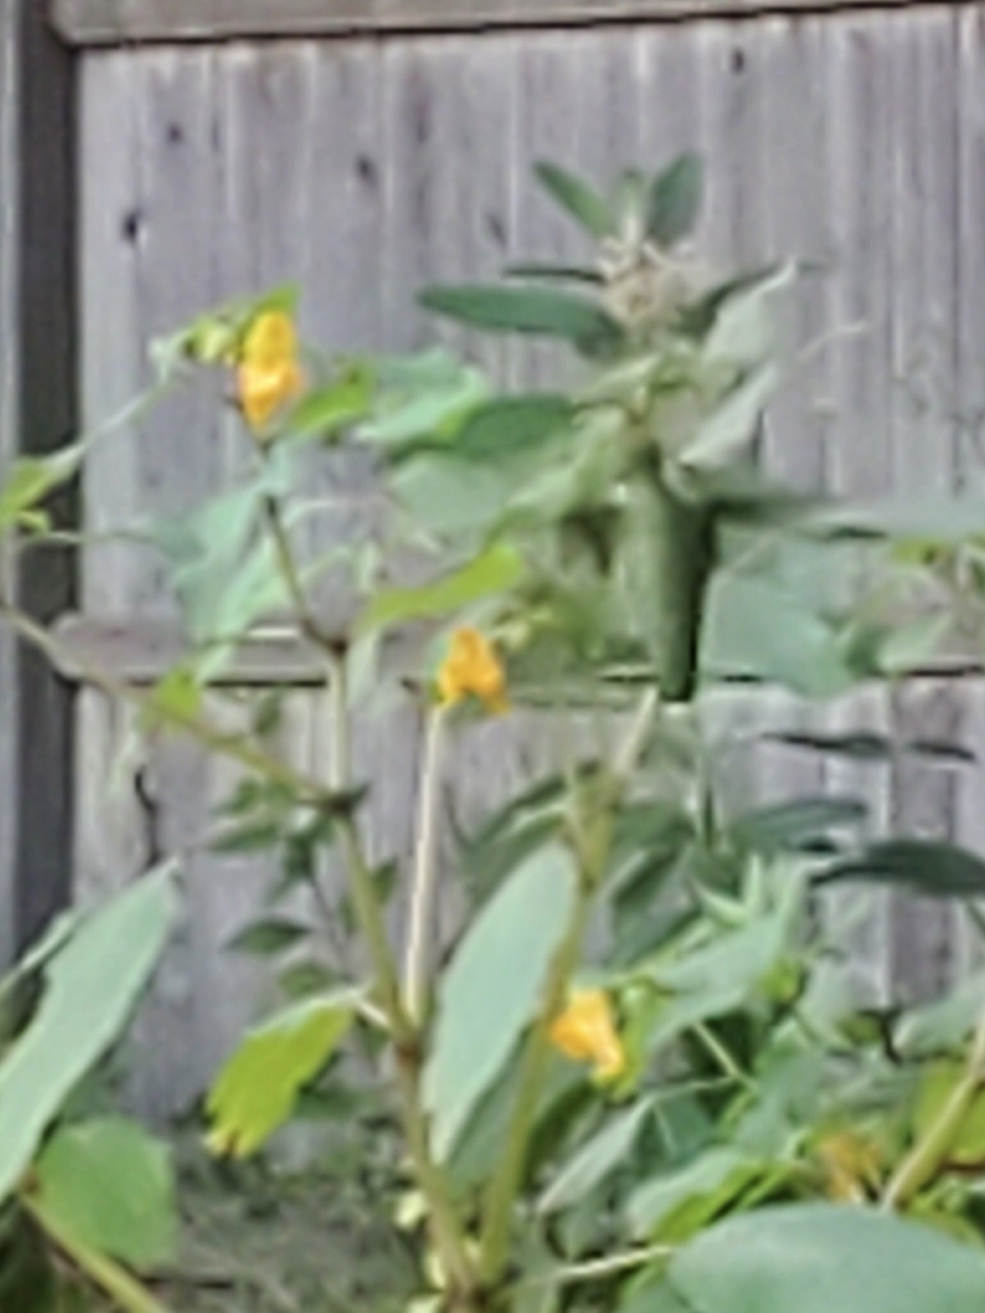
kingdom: Animalia
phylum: Chordata
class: Aves
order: Apodiformes
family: Trochilidae
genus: Archilochus
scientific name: Archilochus colubris
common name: Ruby-throated hummingbird
